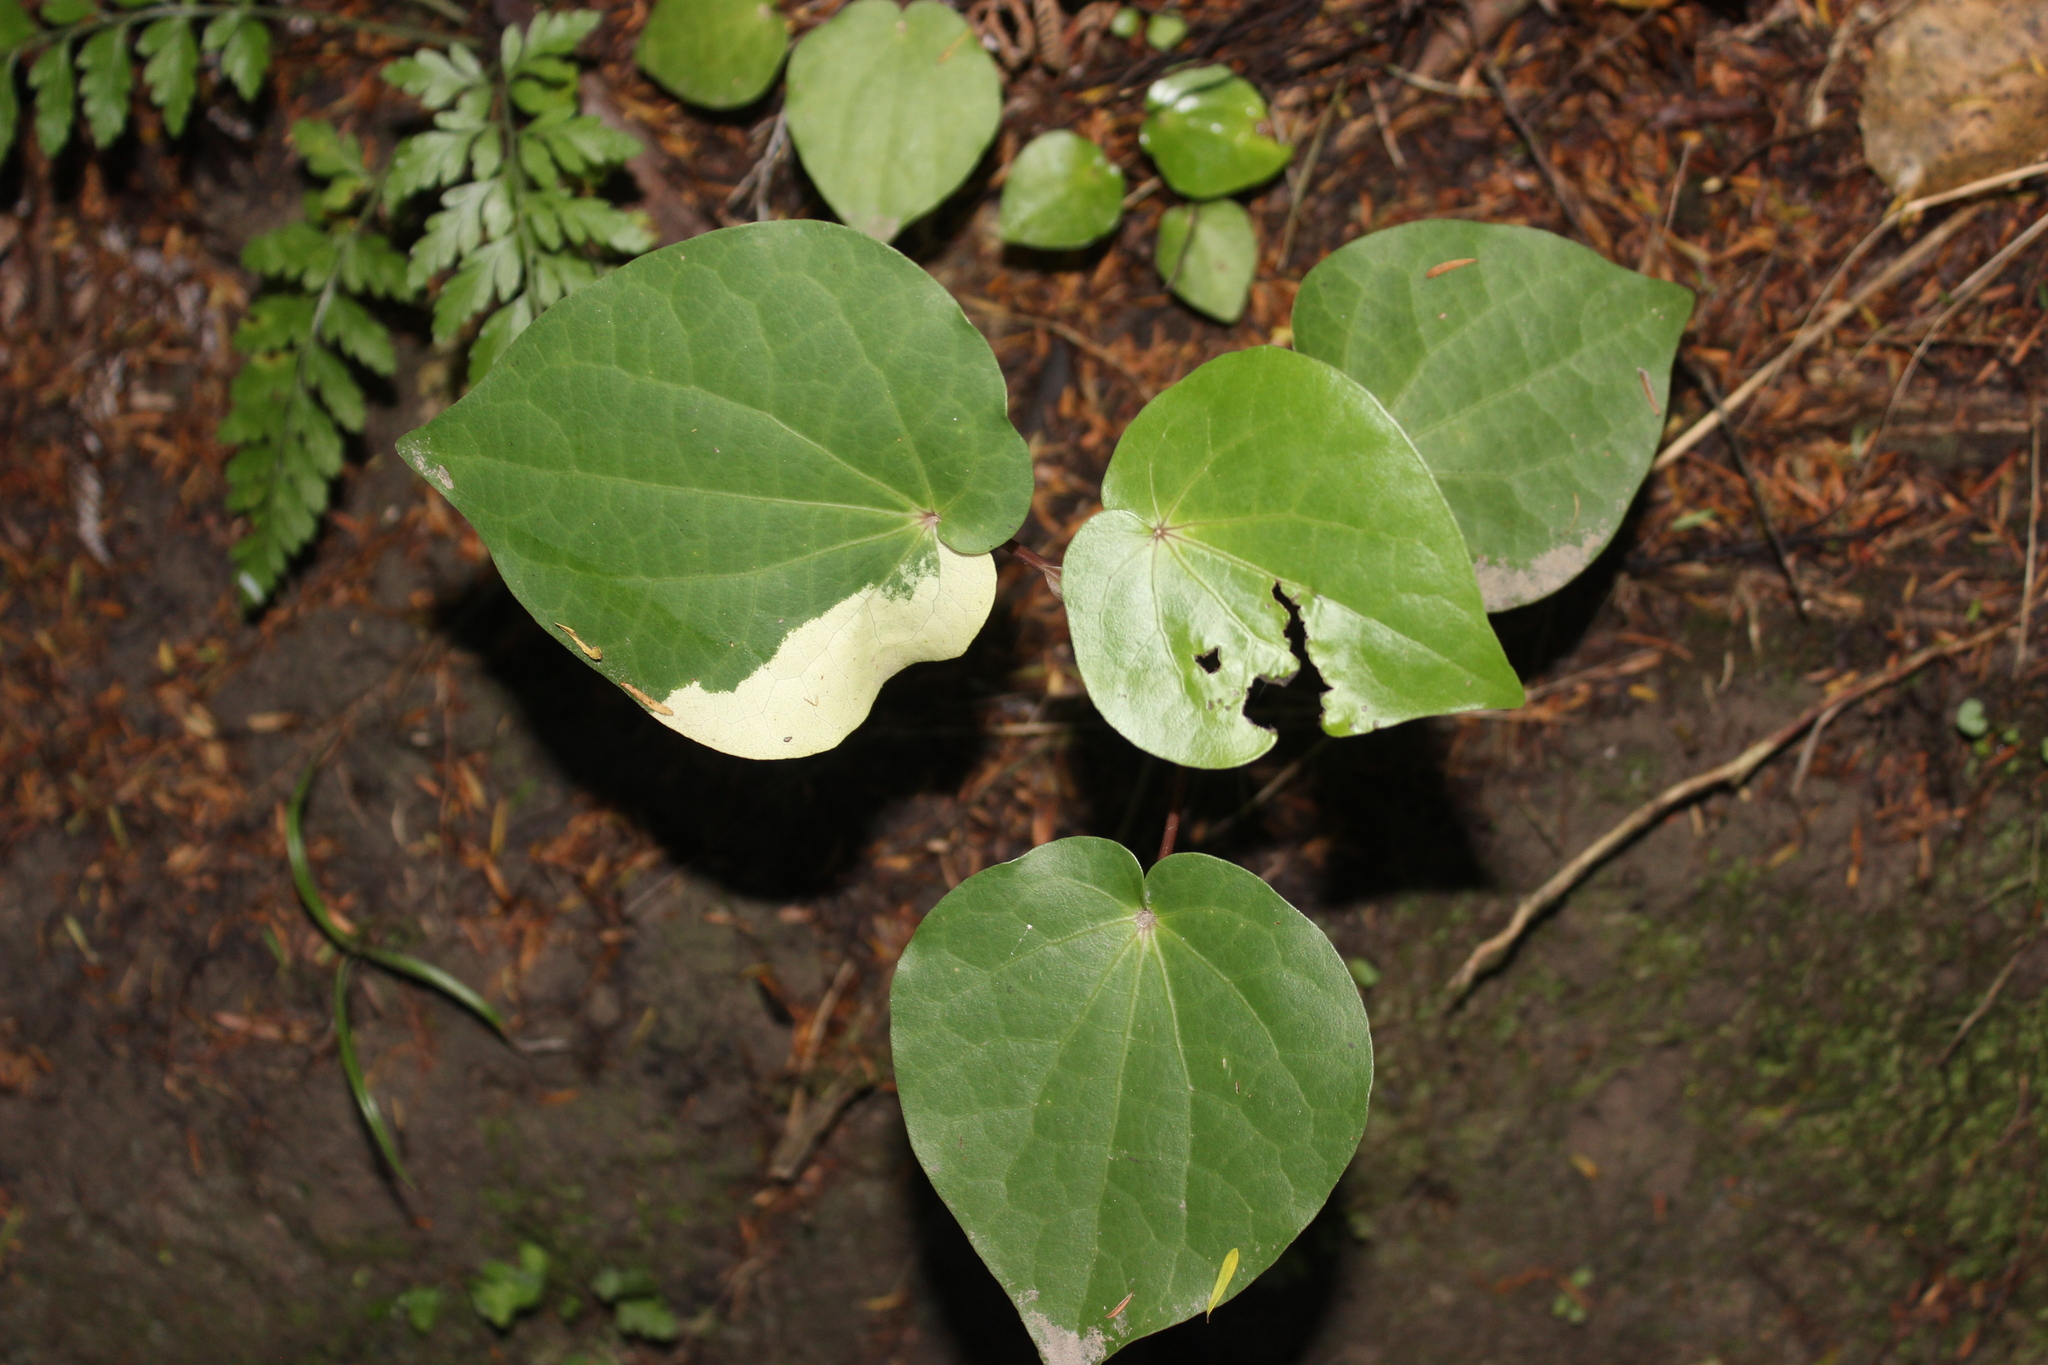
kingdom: Plantae
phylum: Tracheophyta
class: Magnoliopsida
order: Piperales
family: Piperaceae
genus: Macropiper
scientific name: Macropiper excelsum
